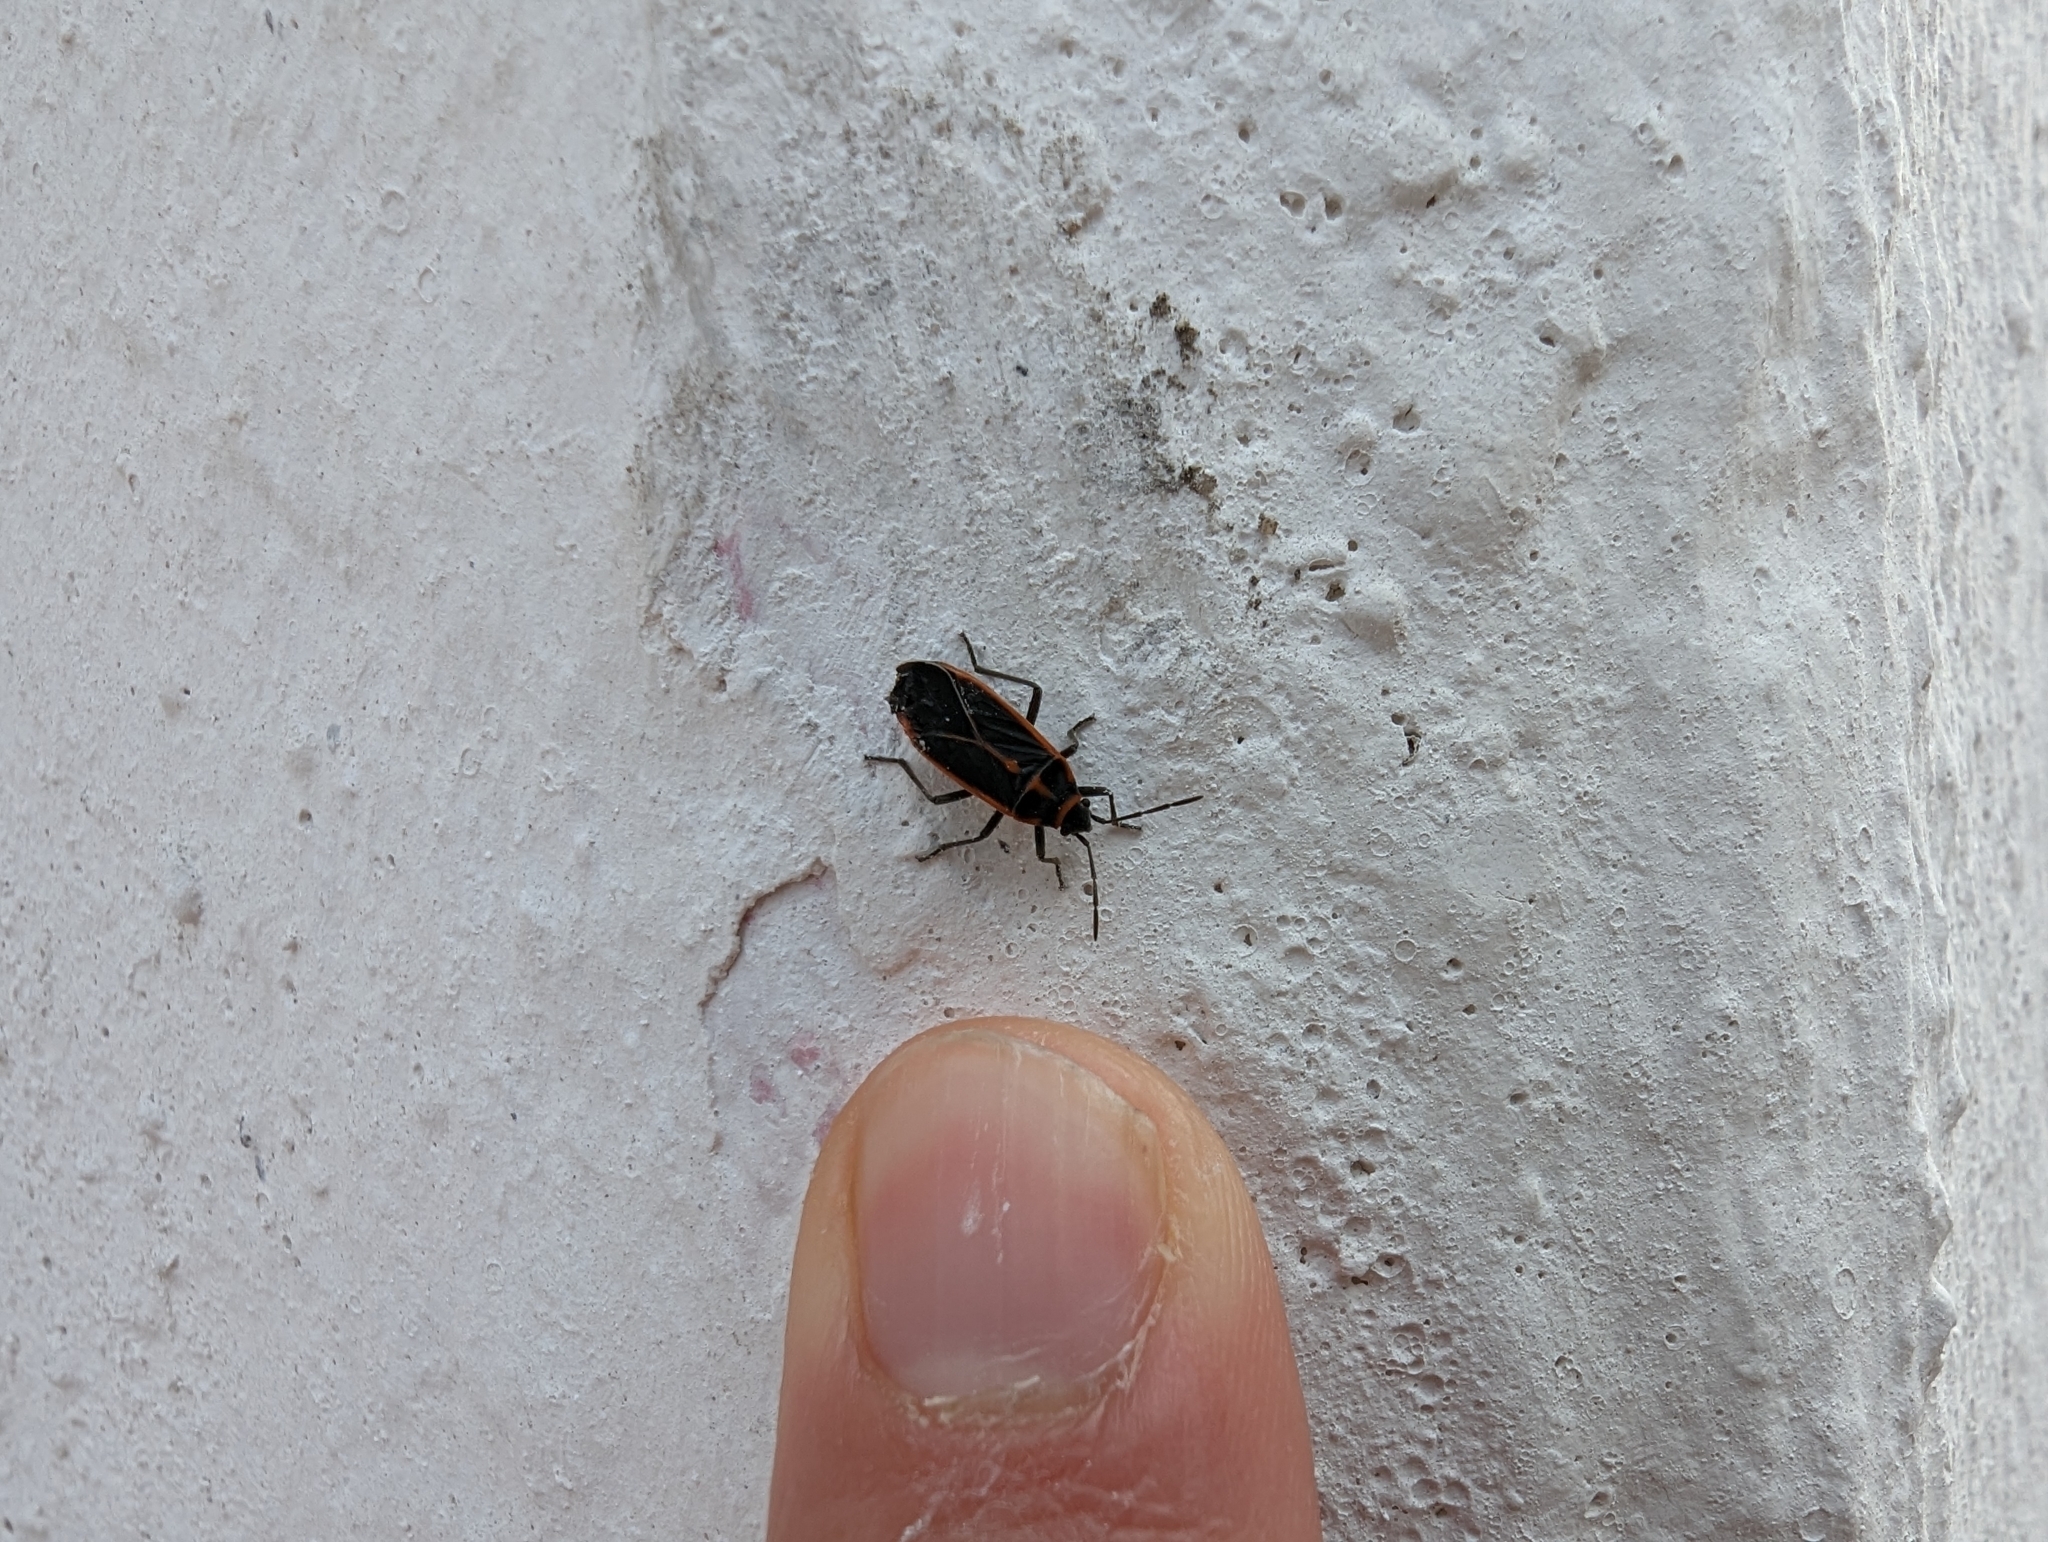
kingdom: Animalia
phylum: Arthropoda
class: Insecta
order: Hemiptera
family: Lygaeidae
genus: Melacoryphus
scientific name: Melacoryphus circumlitus
